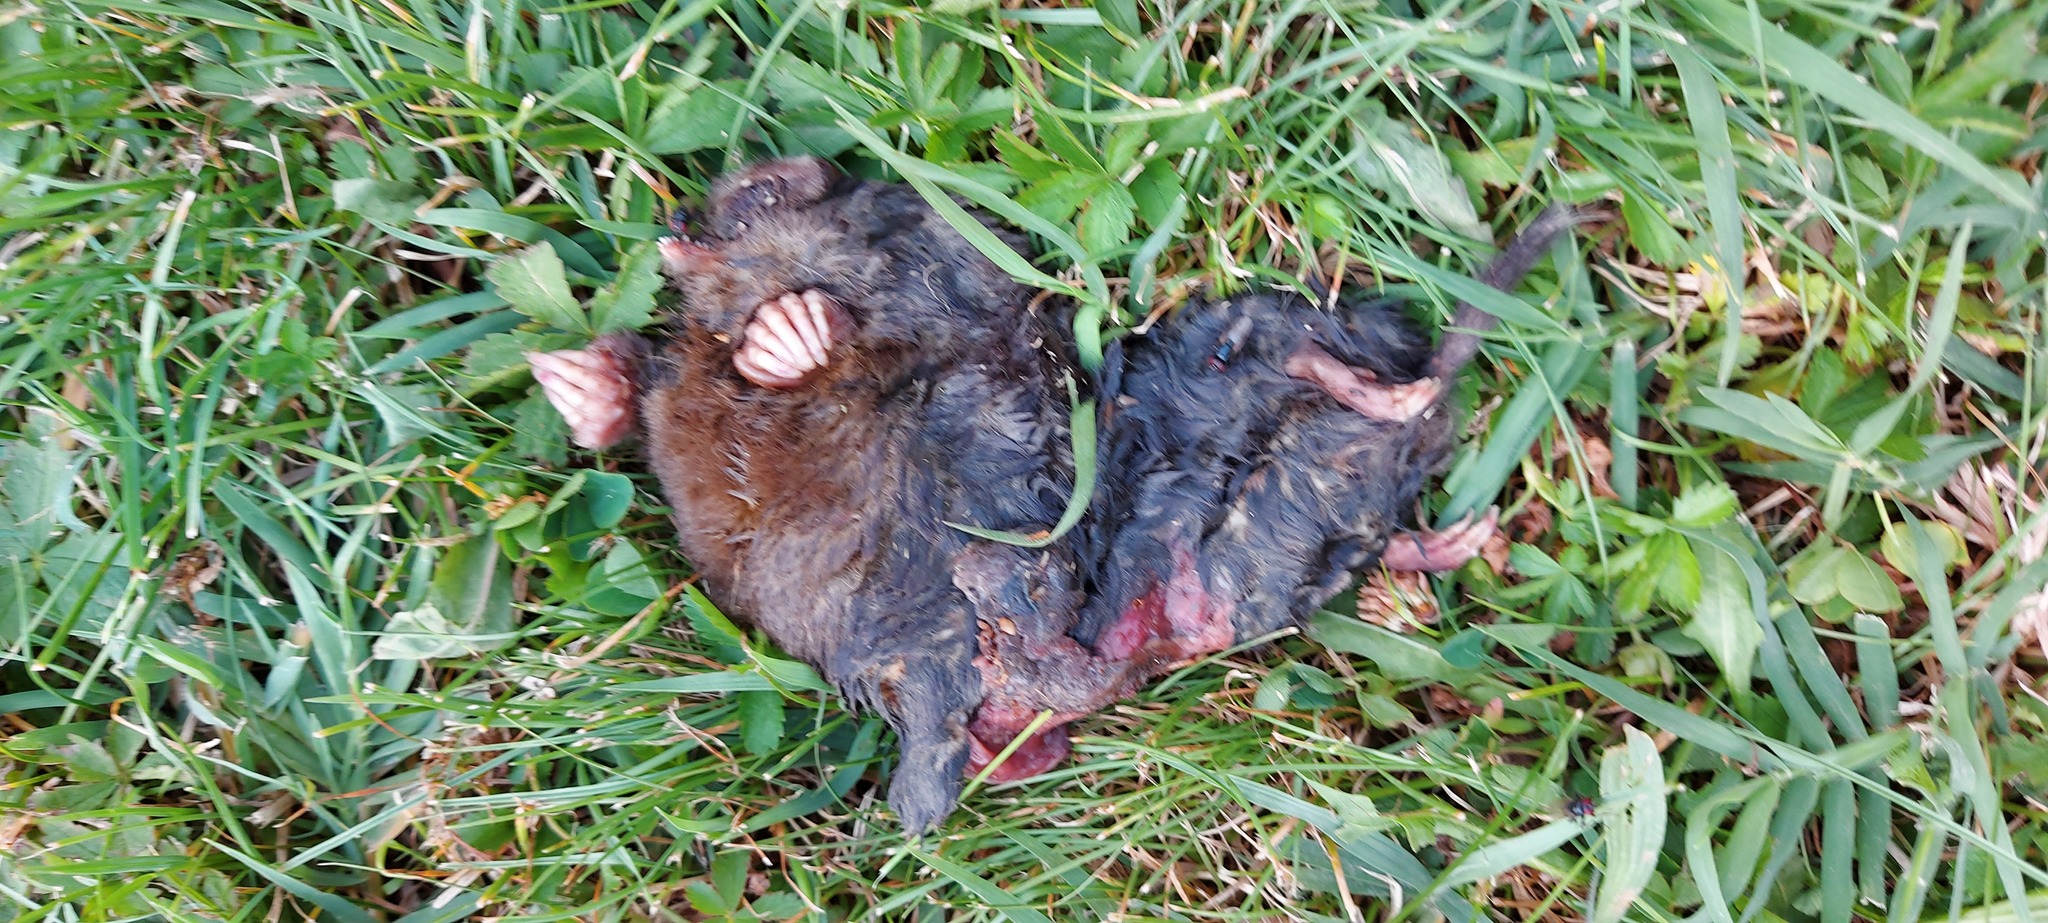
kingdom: Animalia
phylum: Chordata
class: Mammalia
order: Soricomorpha
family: Talpidae
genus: Talpa
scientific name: Talpa europaea
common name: European mole
